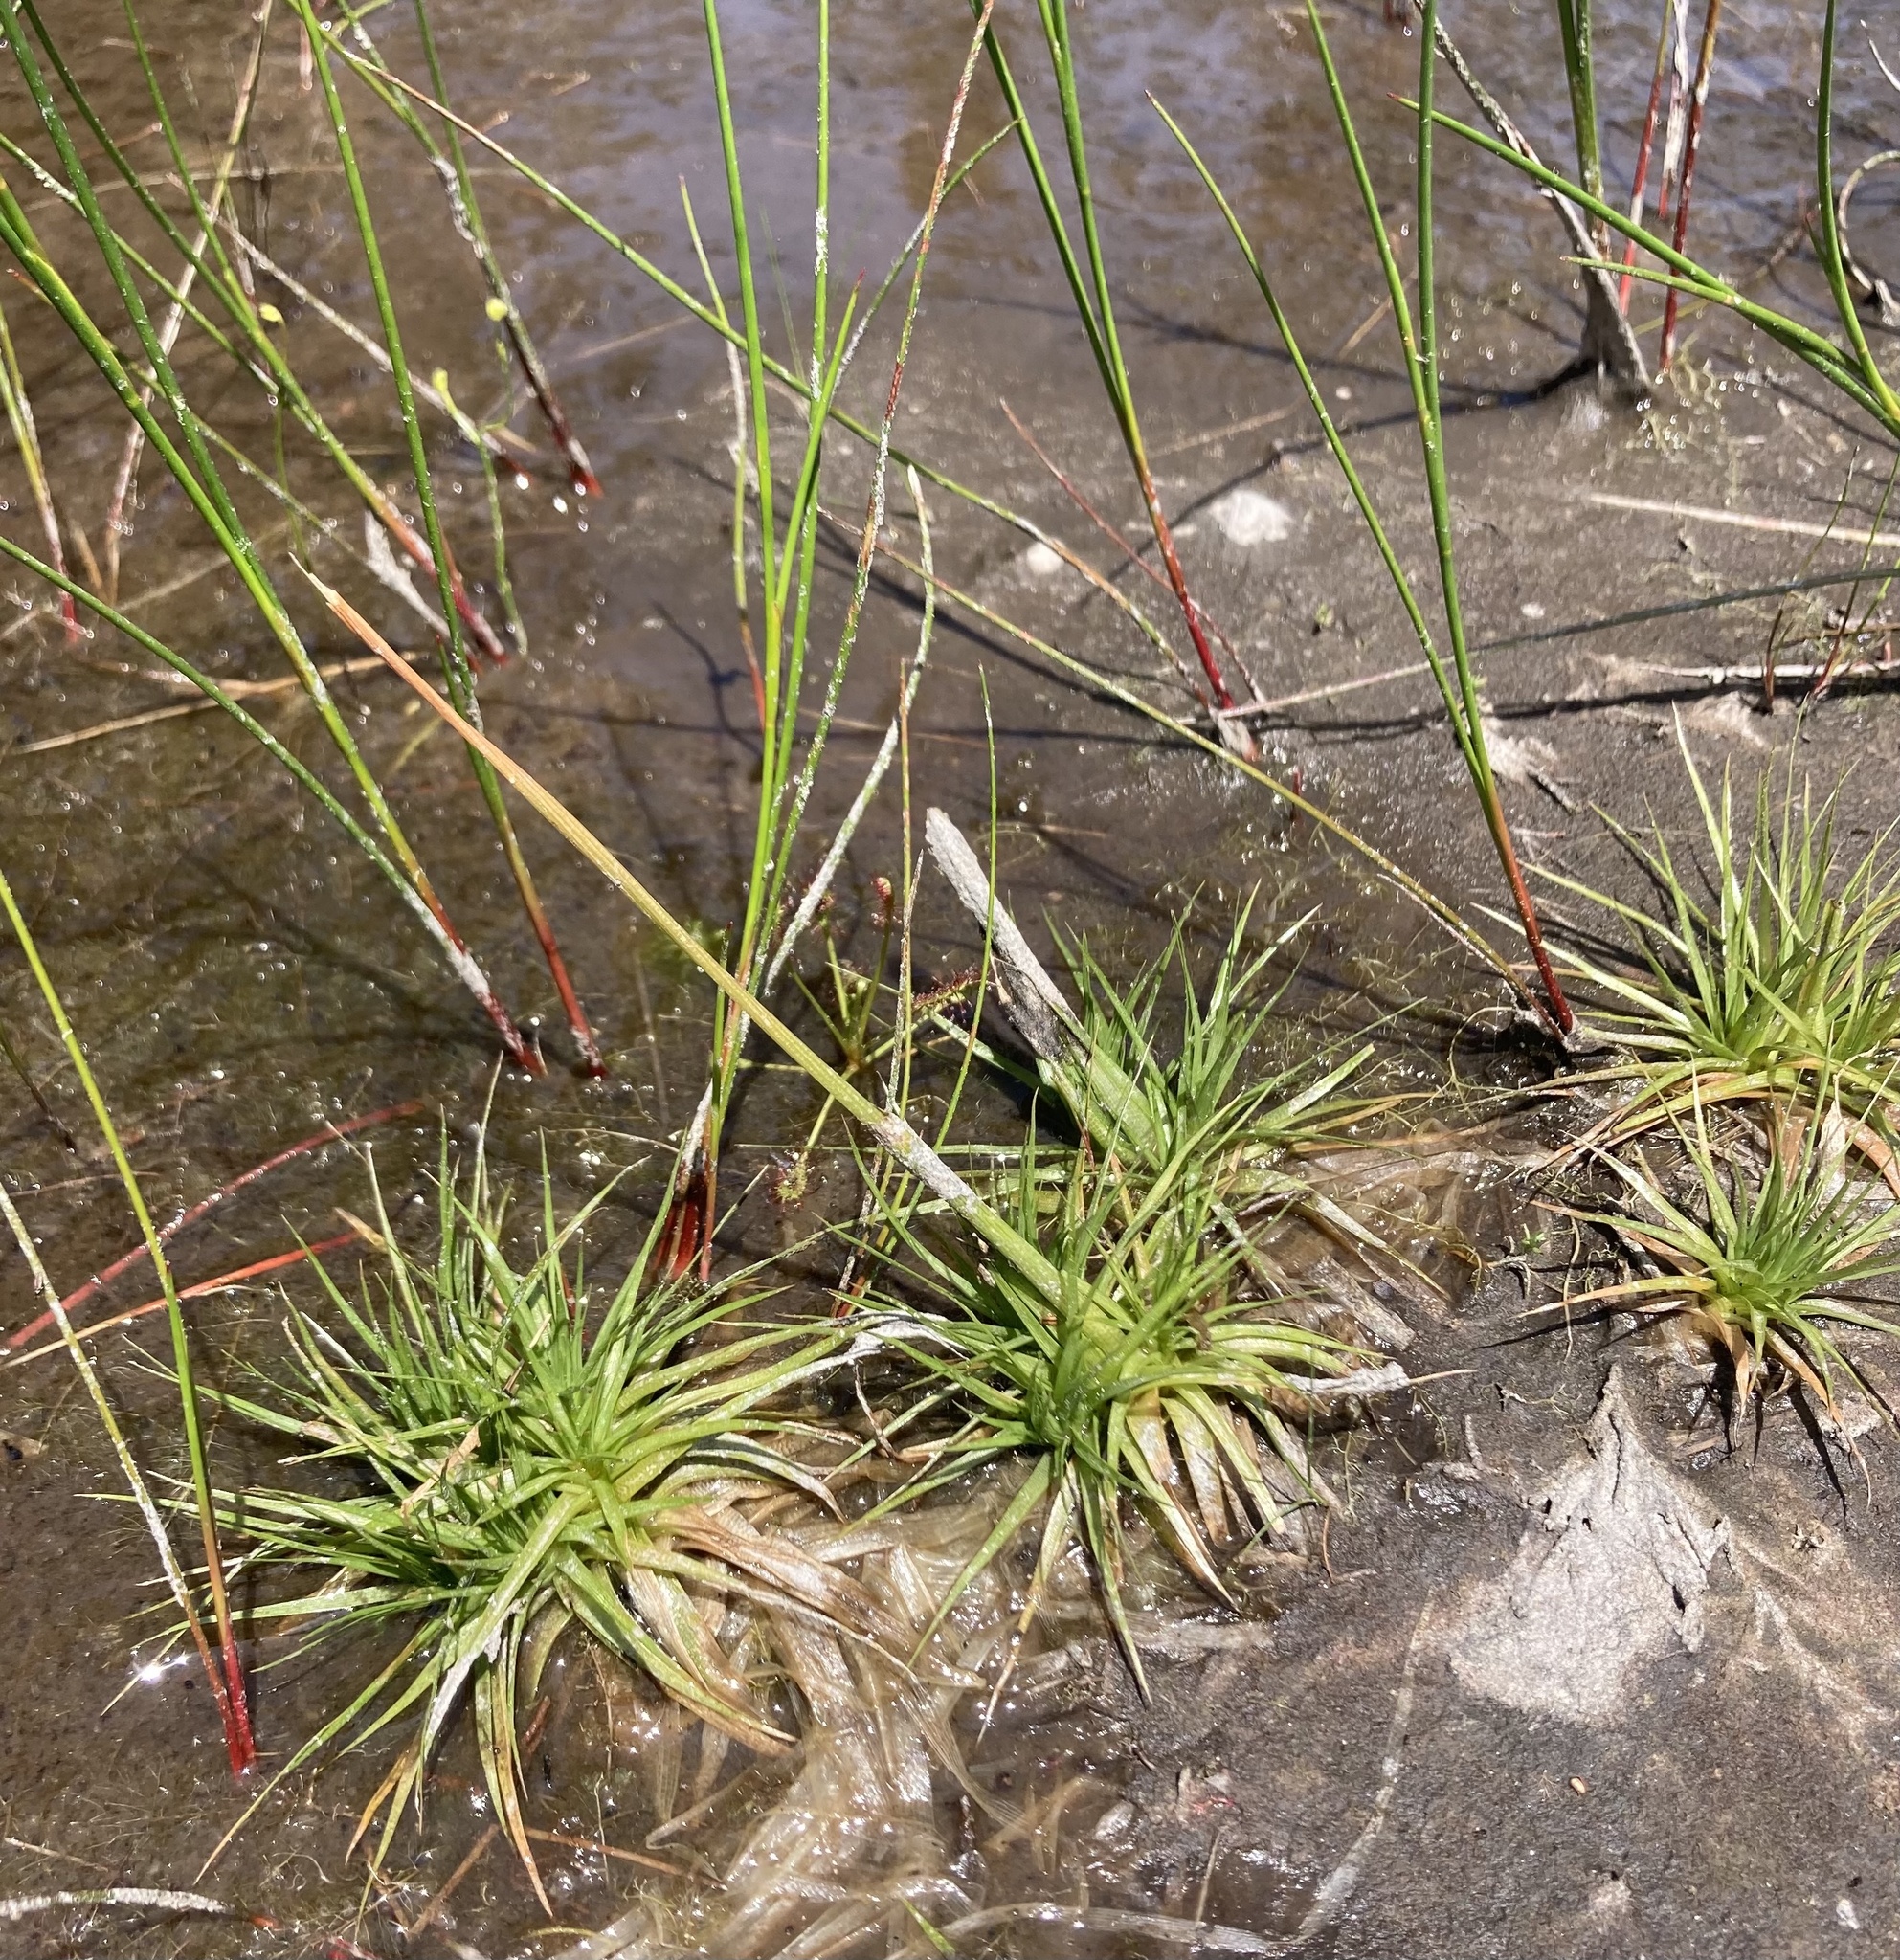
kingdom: Plantae
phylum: Tracheophyta
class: Liliopsida
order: Poales
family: Eriocaulaceae
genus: Eriocaulon
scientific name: Eriocaulon compressum
